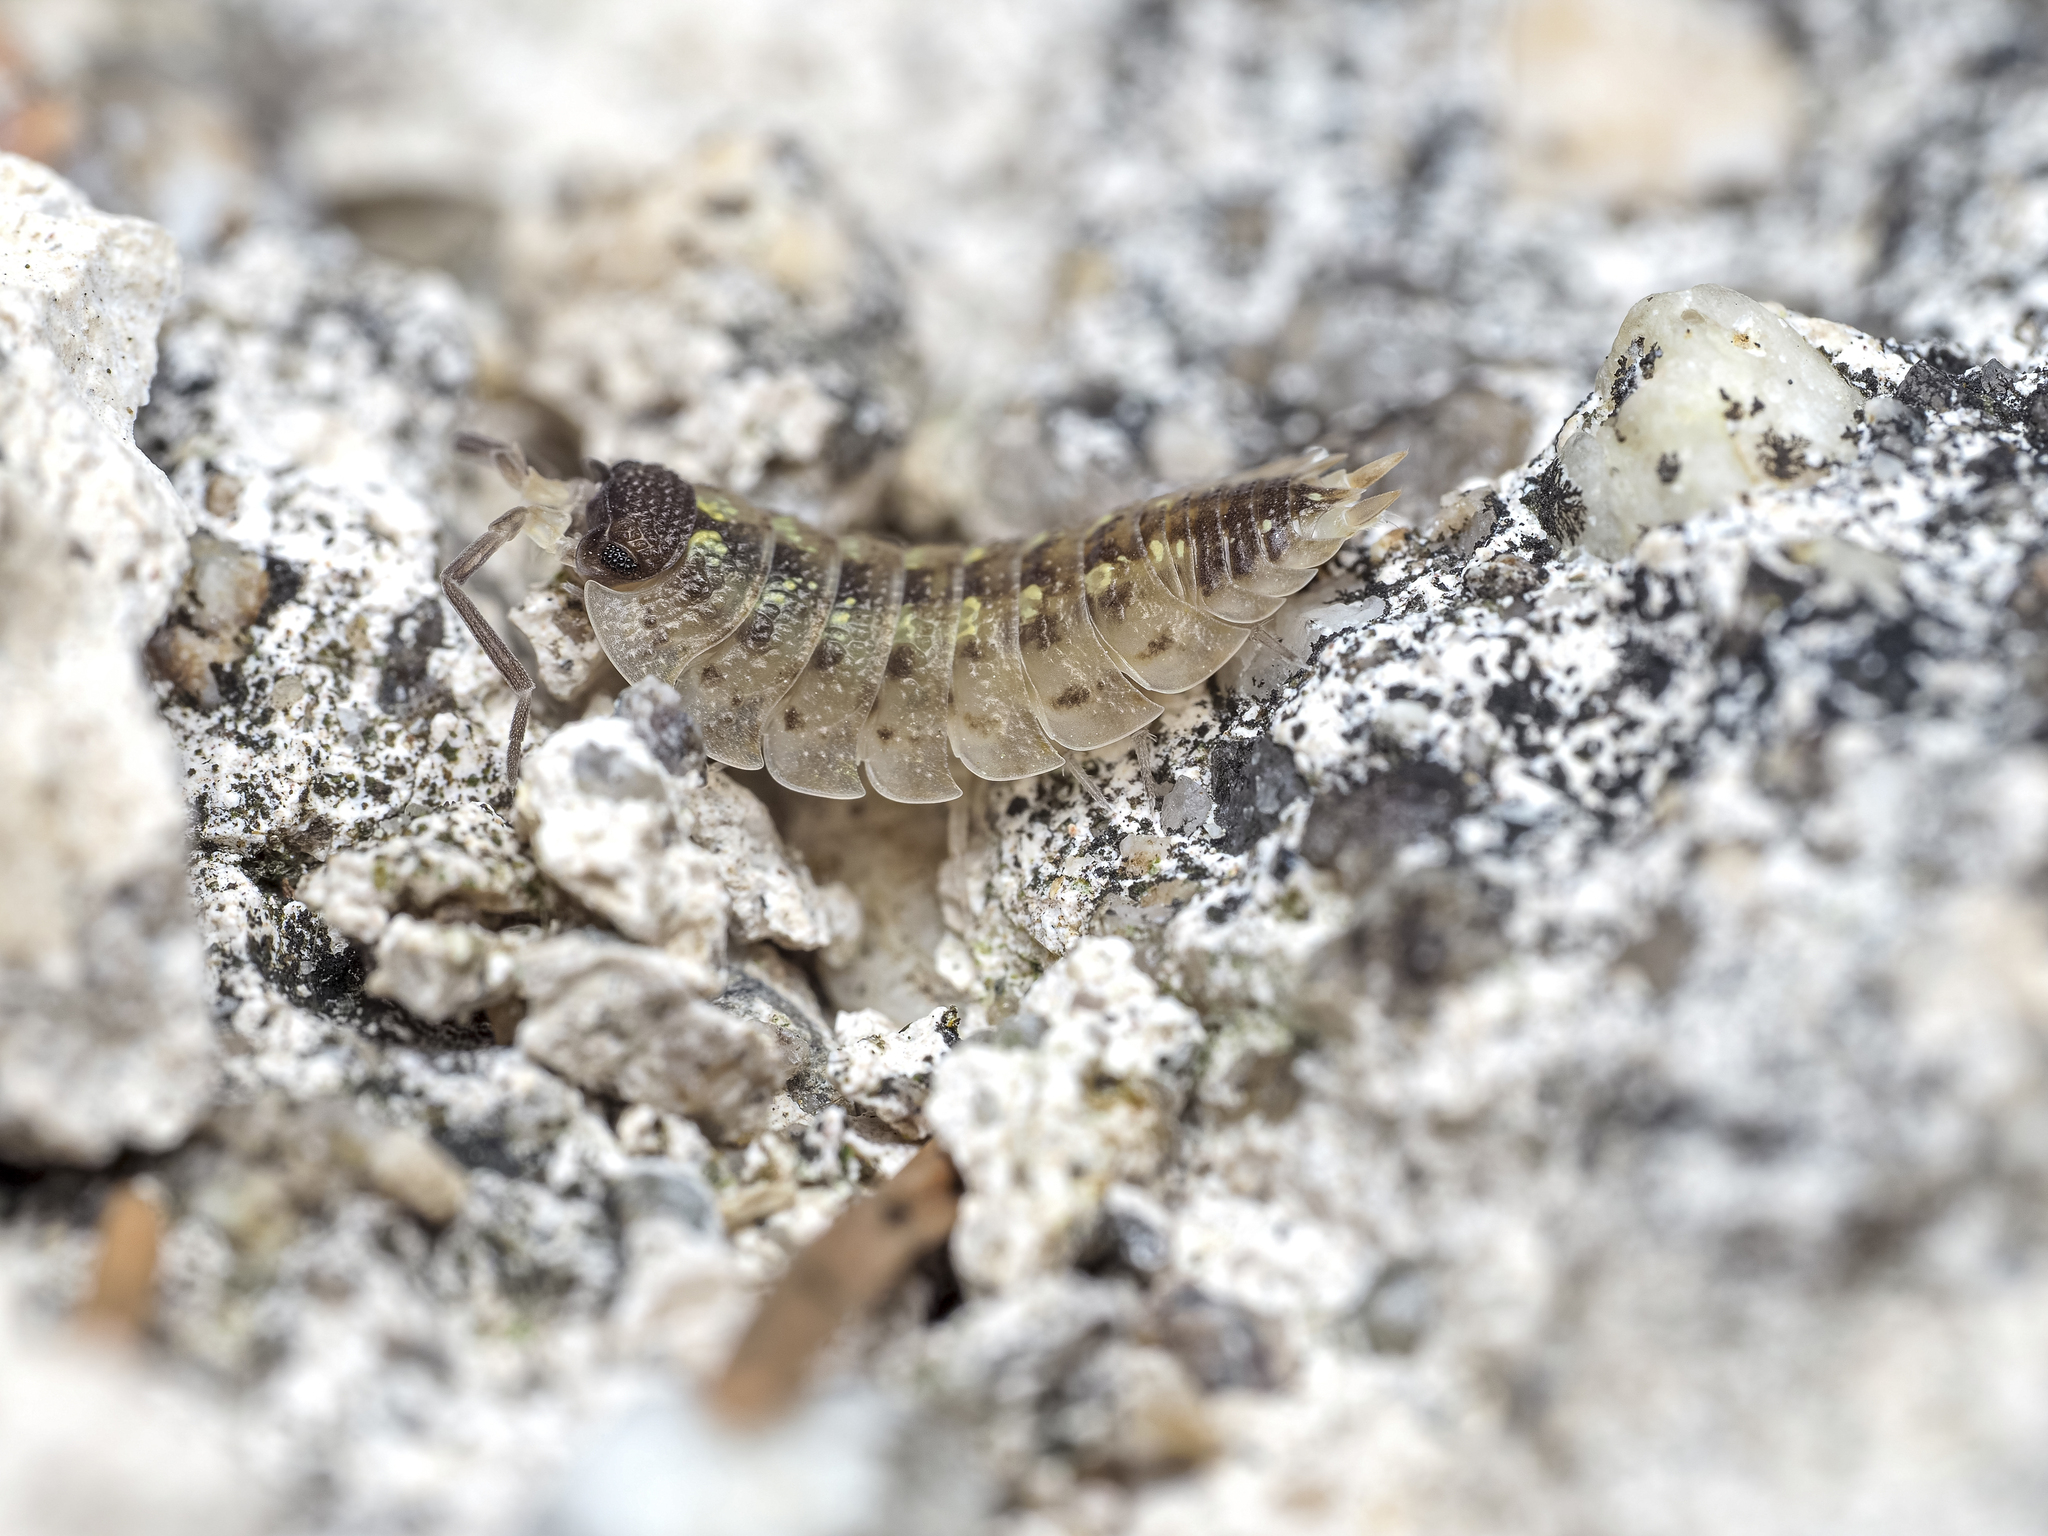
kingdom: Animalia
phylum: Arthropoda
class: Malacostraca
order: Isopoda
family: Porcellionidae
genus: Porcellio
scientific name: Porcellio spinicornis
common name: Painted woodlouse
